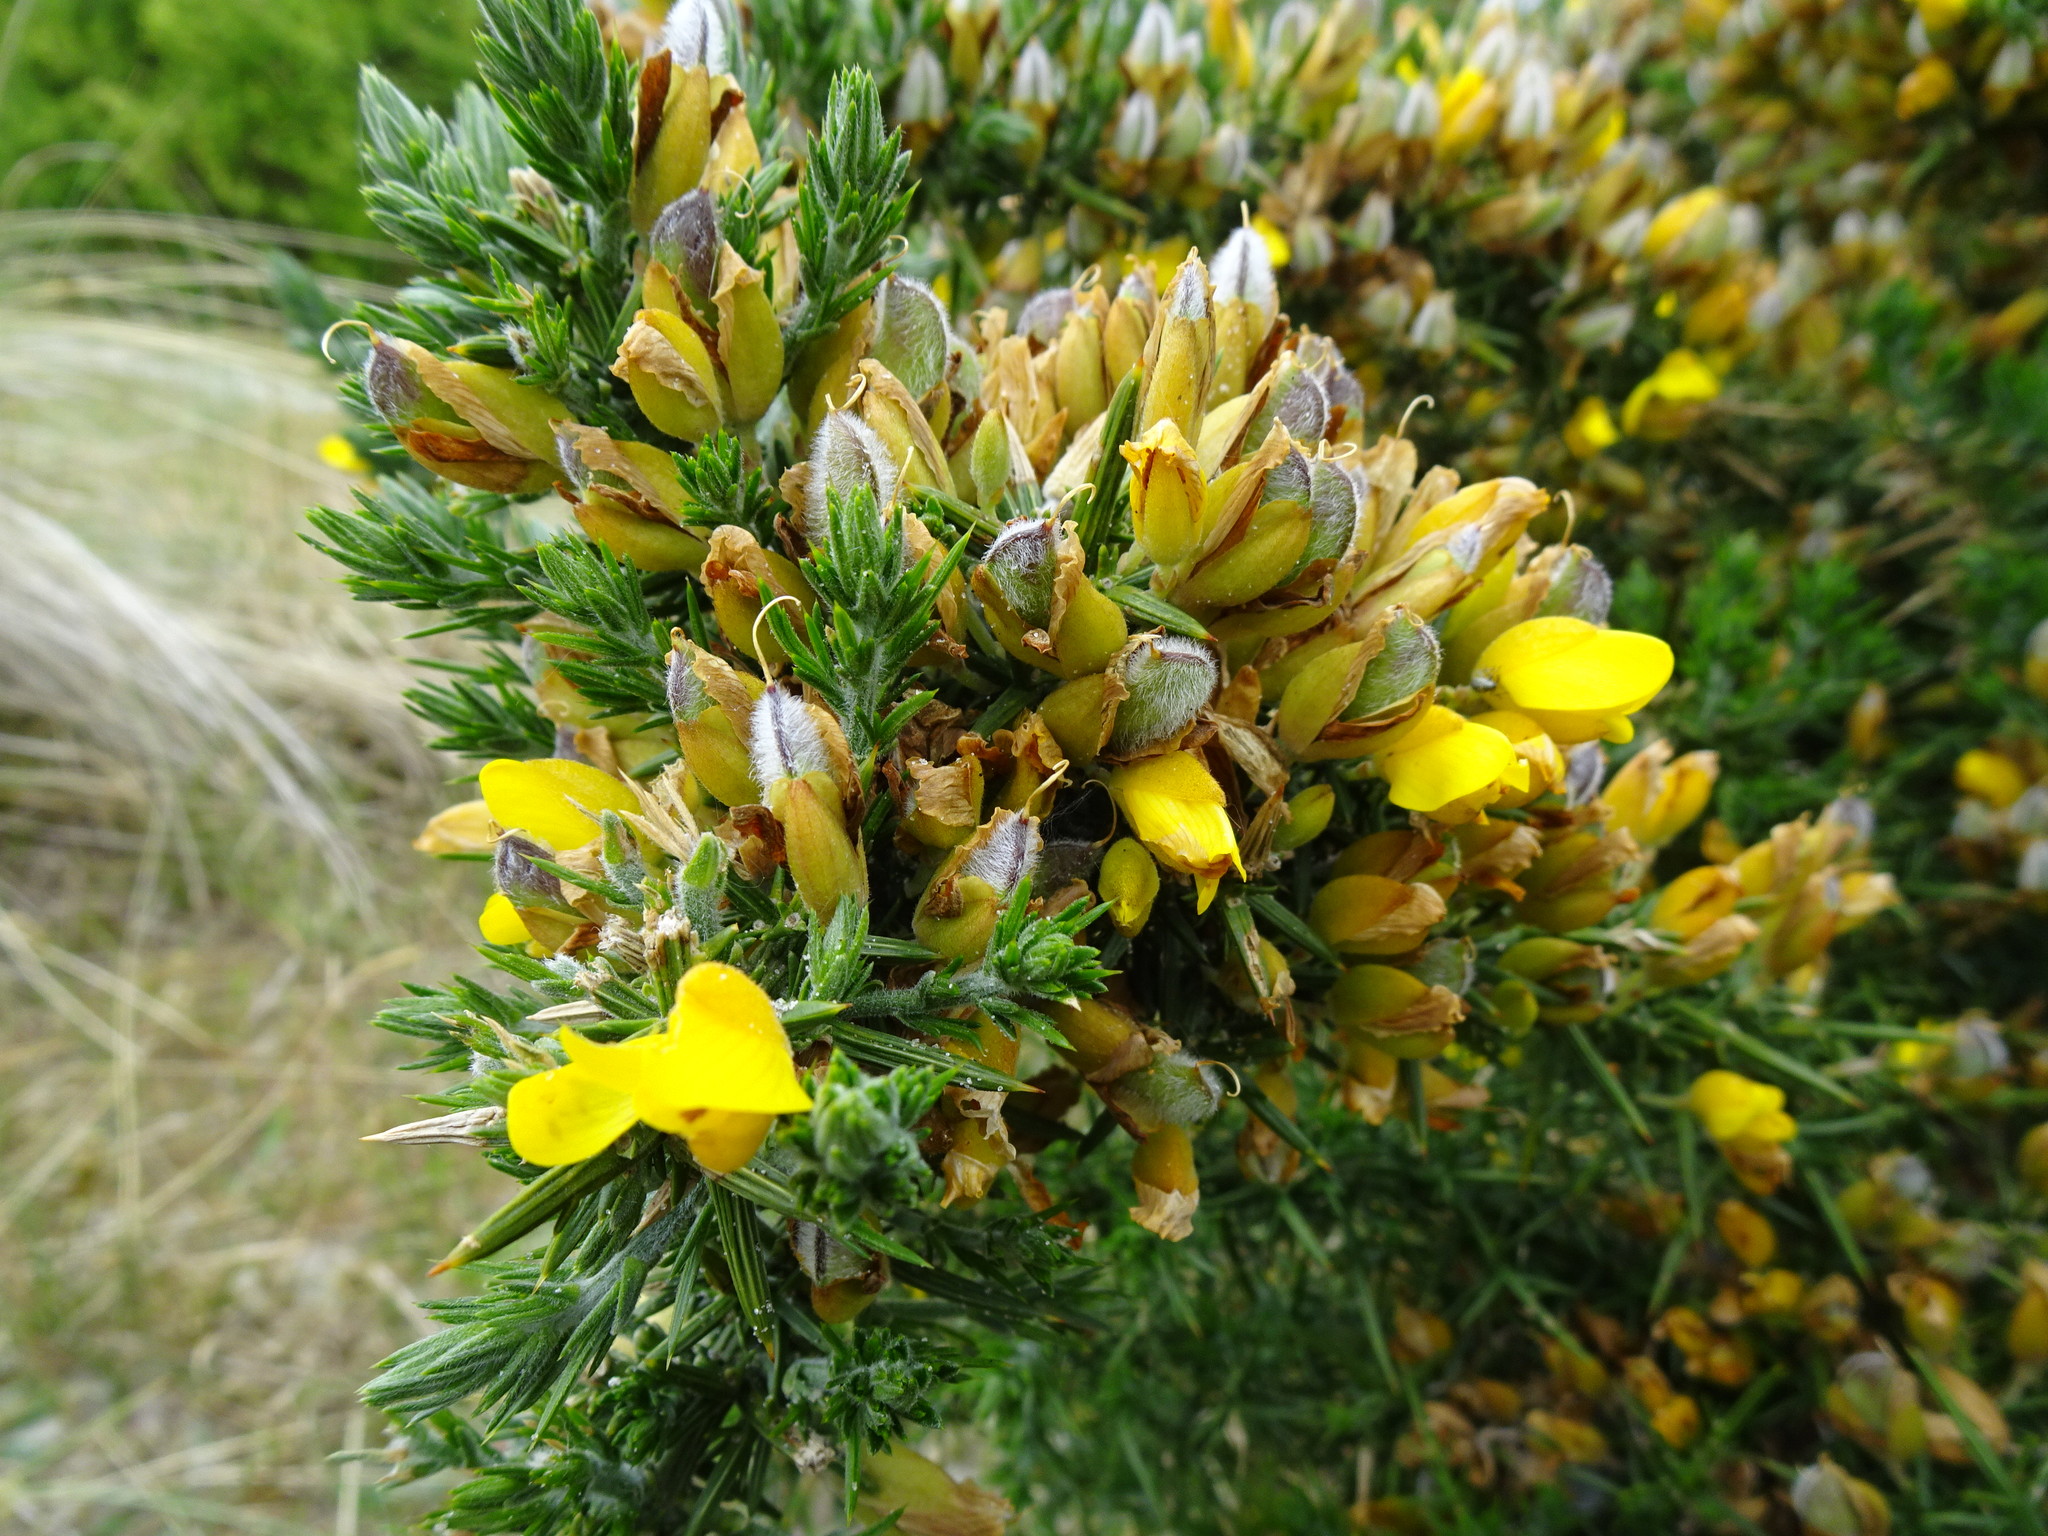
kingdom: Plantae
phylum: Tracheophyta
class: Magnoliopsida
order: Fabales
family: Fabaceae
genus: Ulex
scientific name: Ulex europaeus
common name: Common gorse
